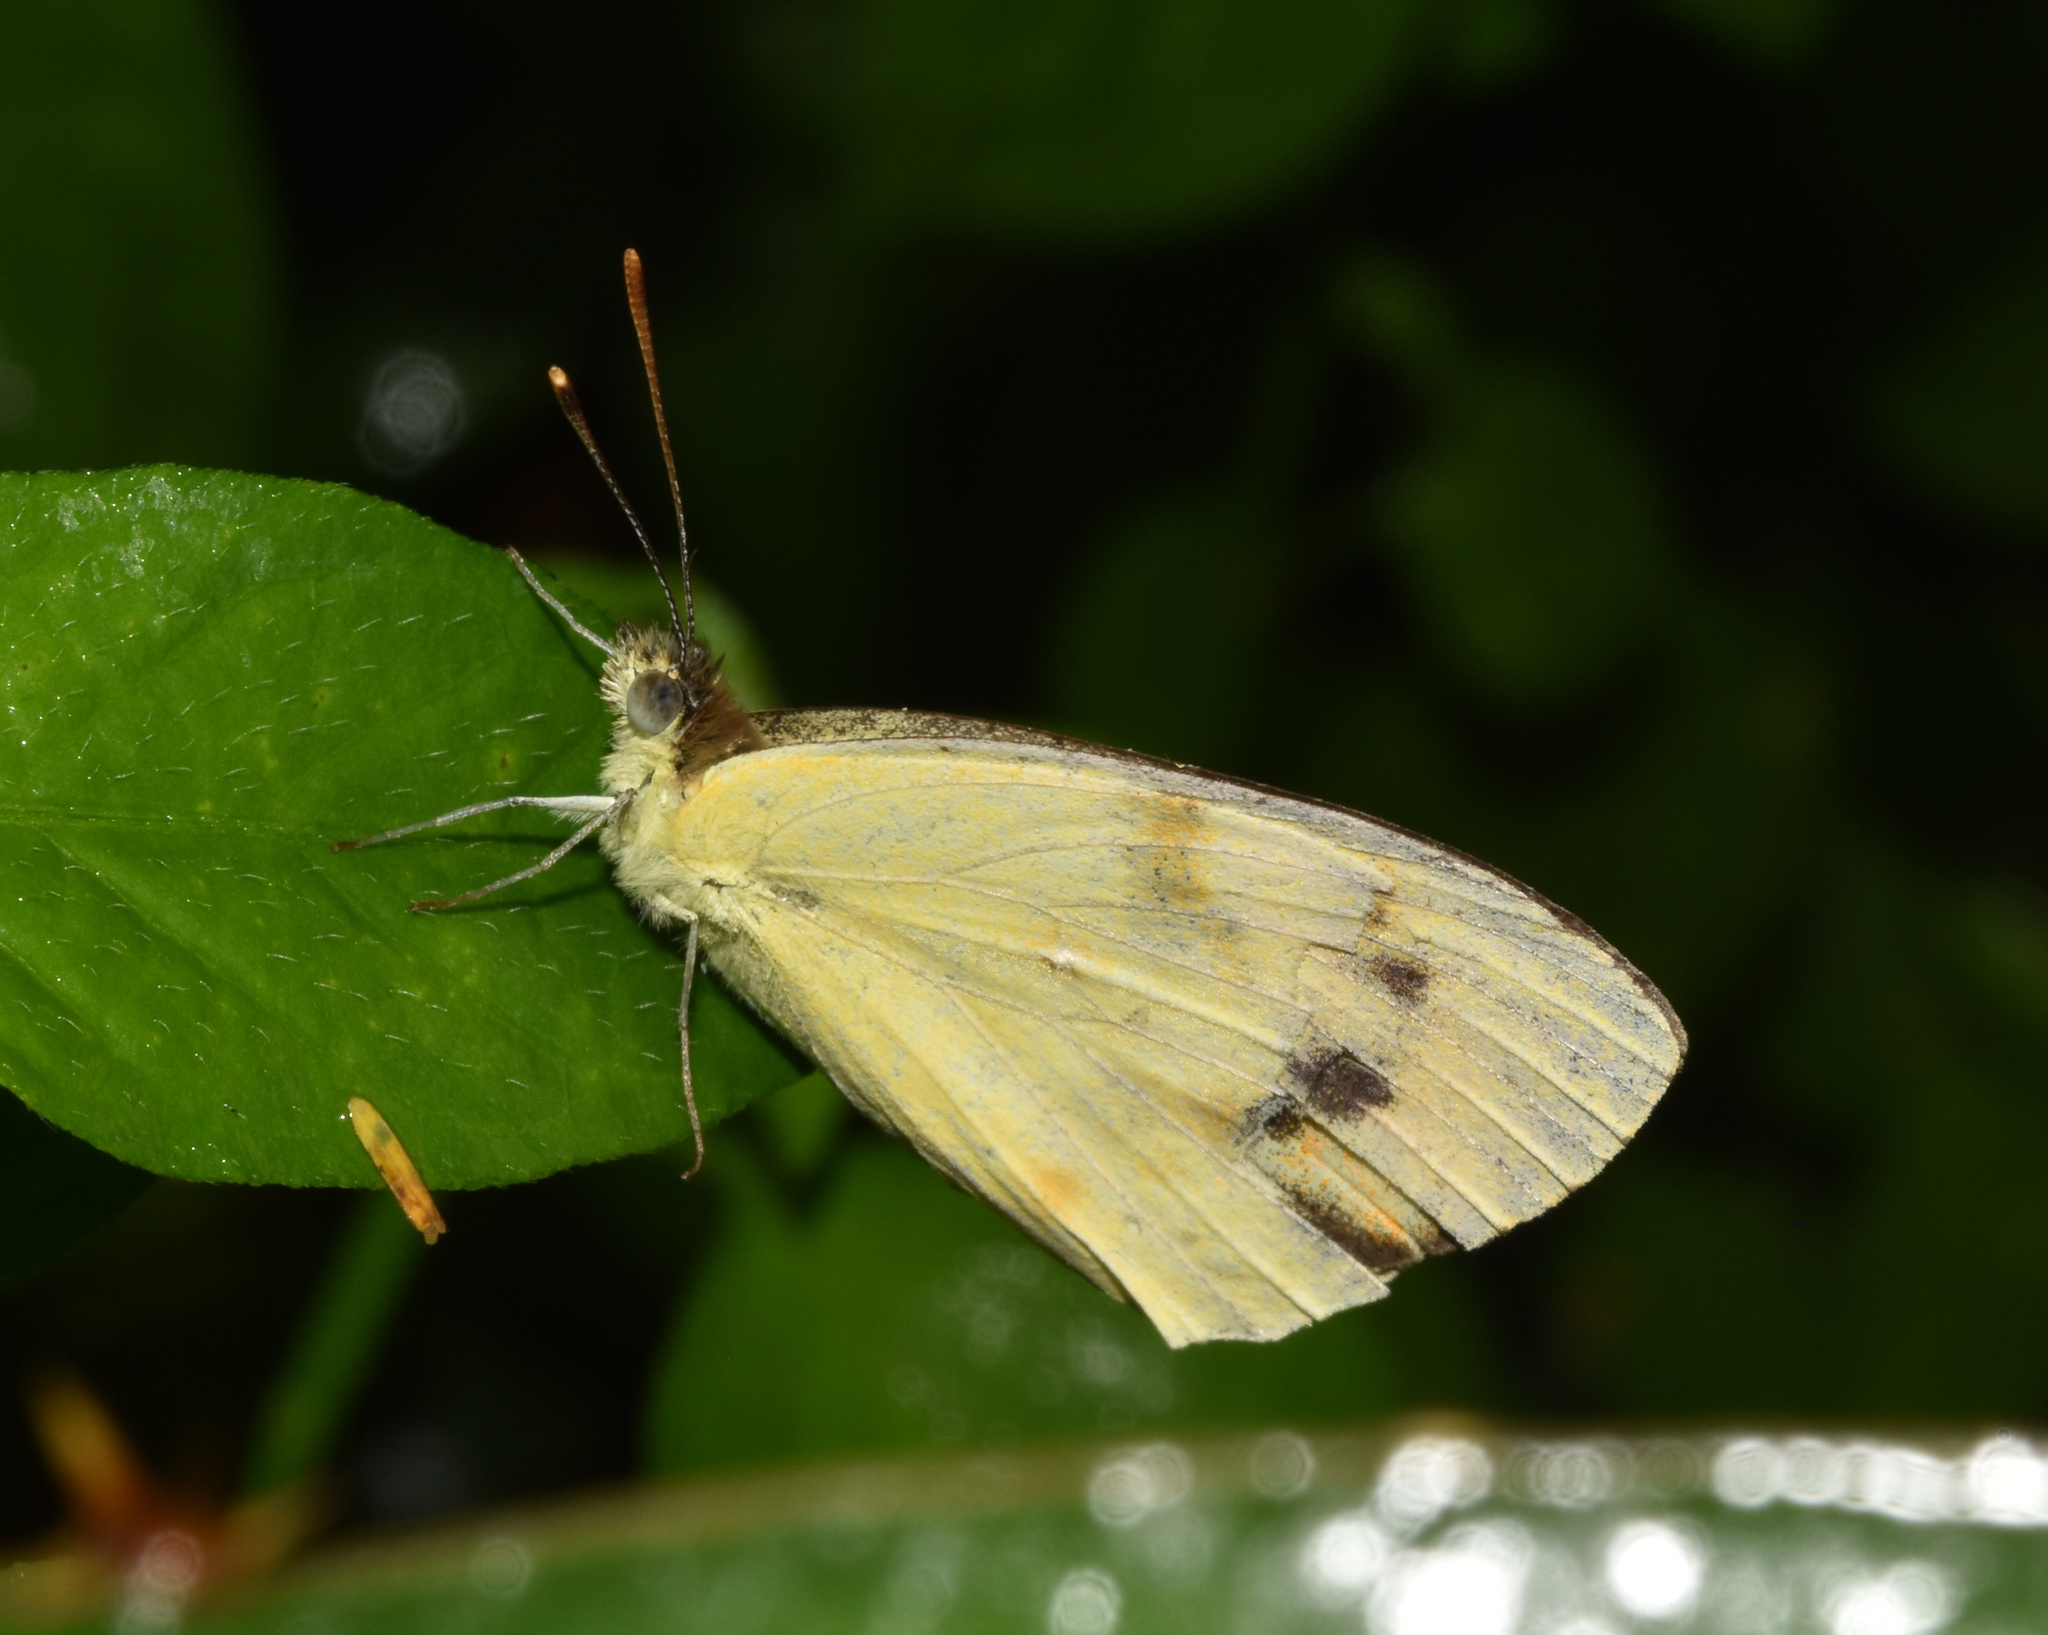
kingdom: Animalia
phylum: Arthropoda
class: Insecta
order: Lepidoptera
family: Pieridae
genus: Colotis
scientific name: Colotis auxo
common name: Sulphur orange tip
